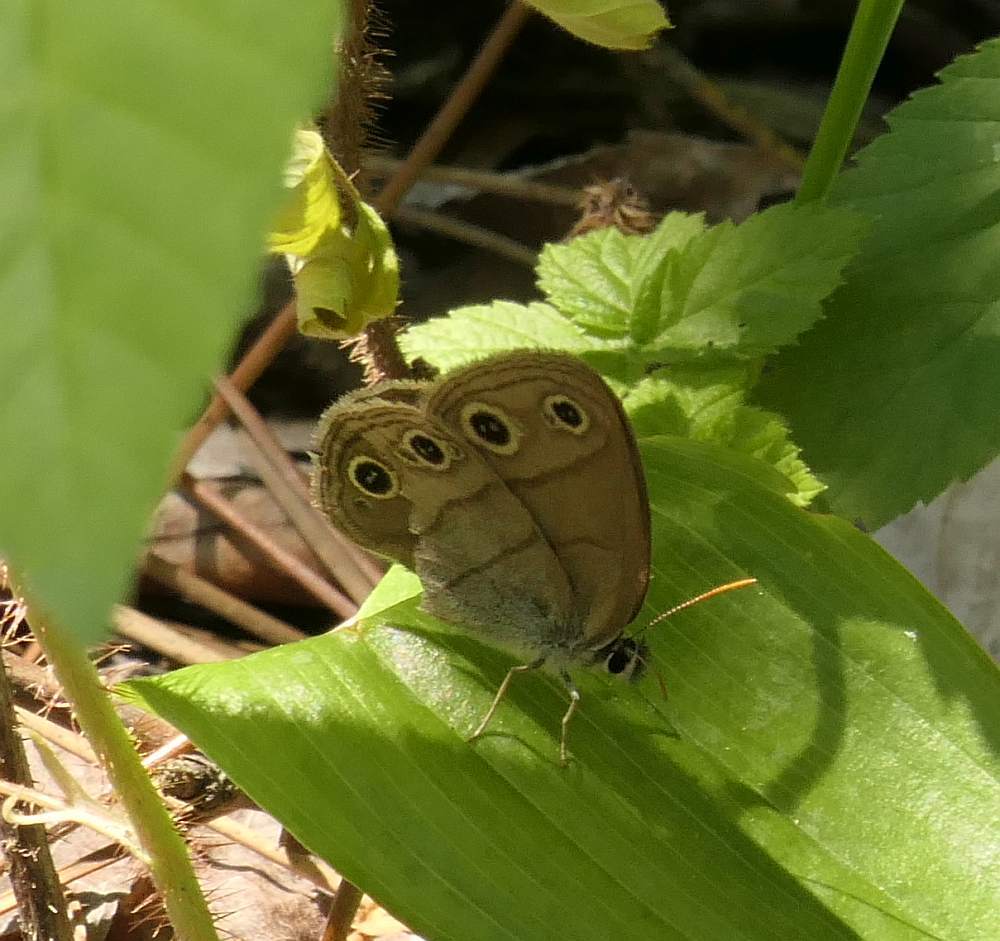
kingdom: Animalia
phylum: Arthropoda
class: Insecta
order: Lepidoptera
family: Nymphalidae
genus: Euptychia
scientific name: Euptychia cymela
